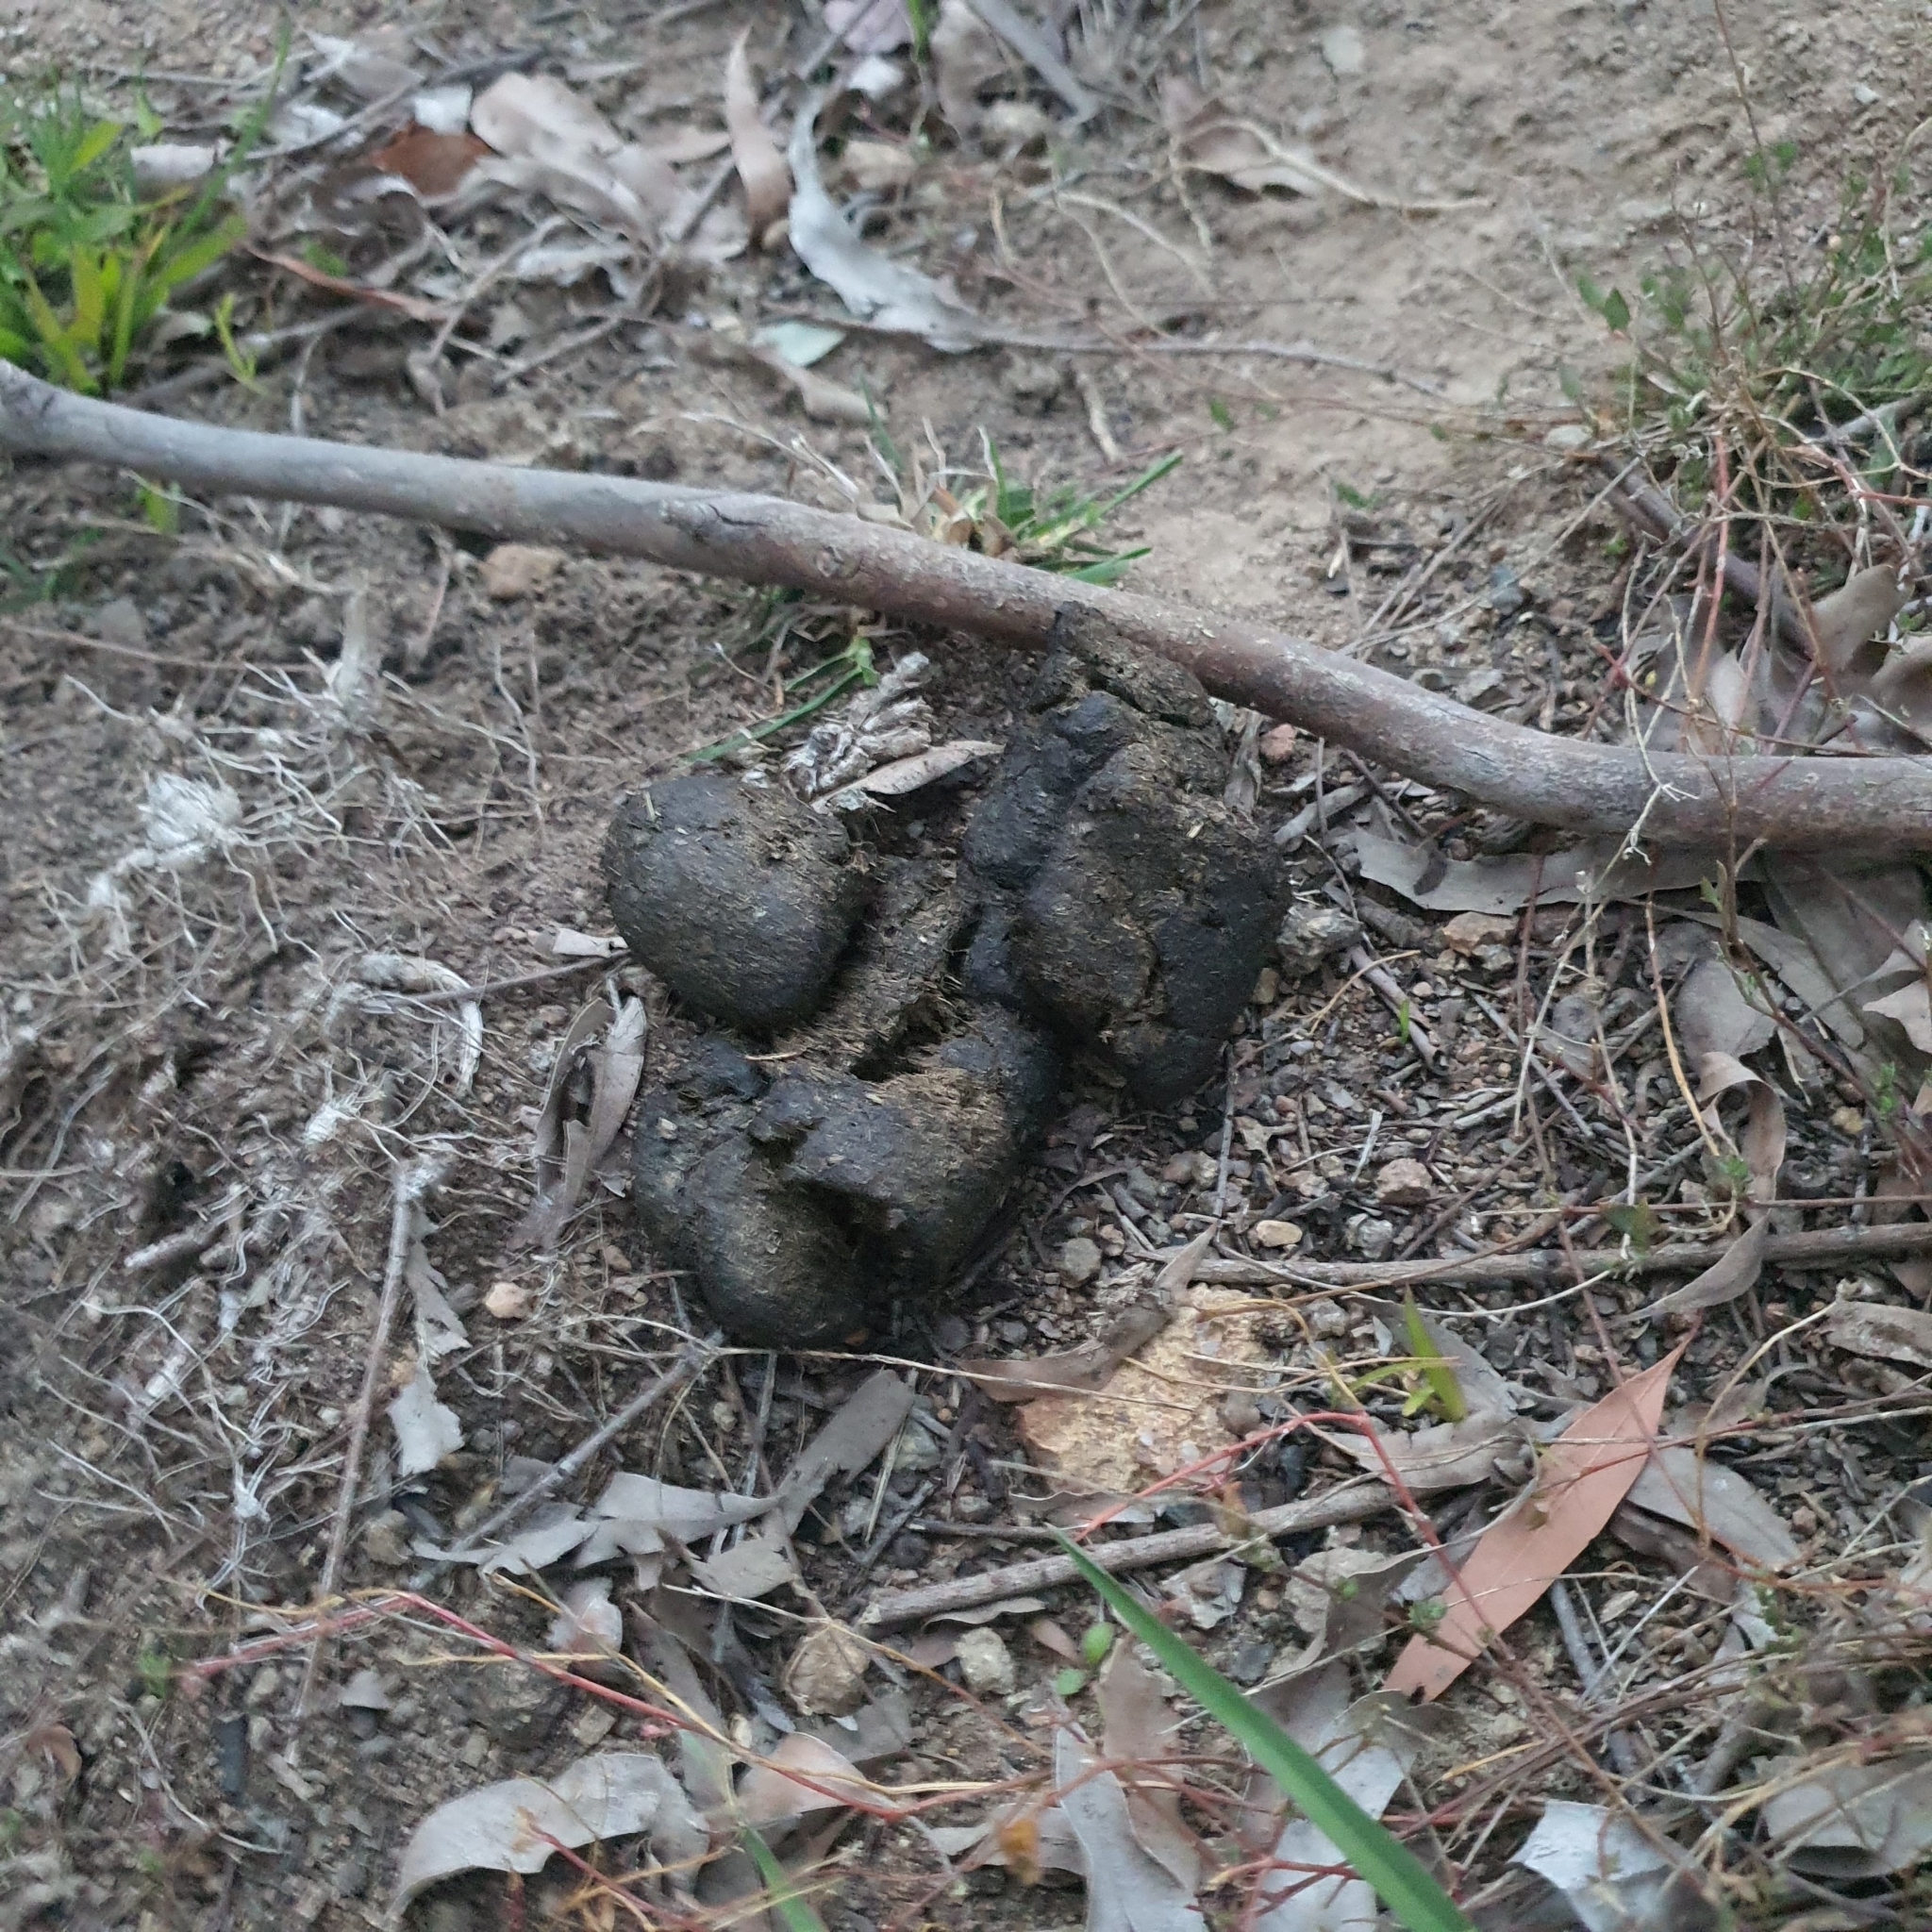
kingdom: Animalia
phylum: Chordata
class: Mammalia
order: Diprotodontia
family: Vombatidae
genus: Vombatus
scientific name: Vombatus ursinus
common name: Common wombat
